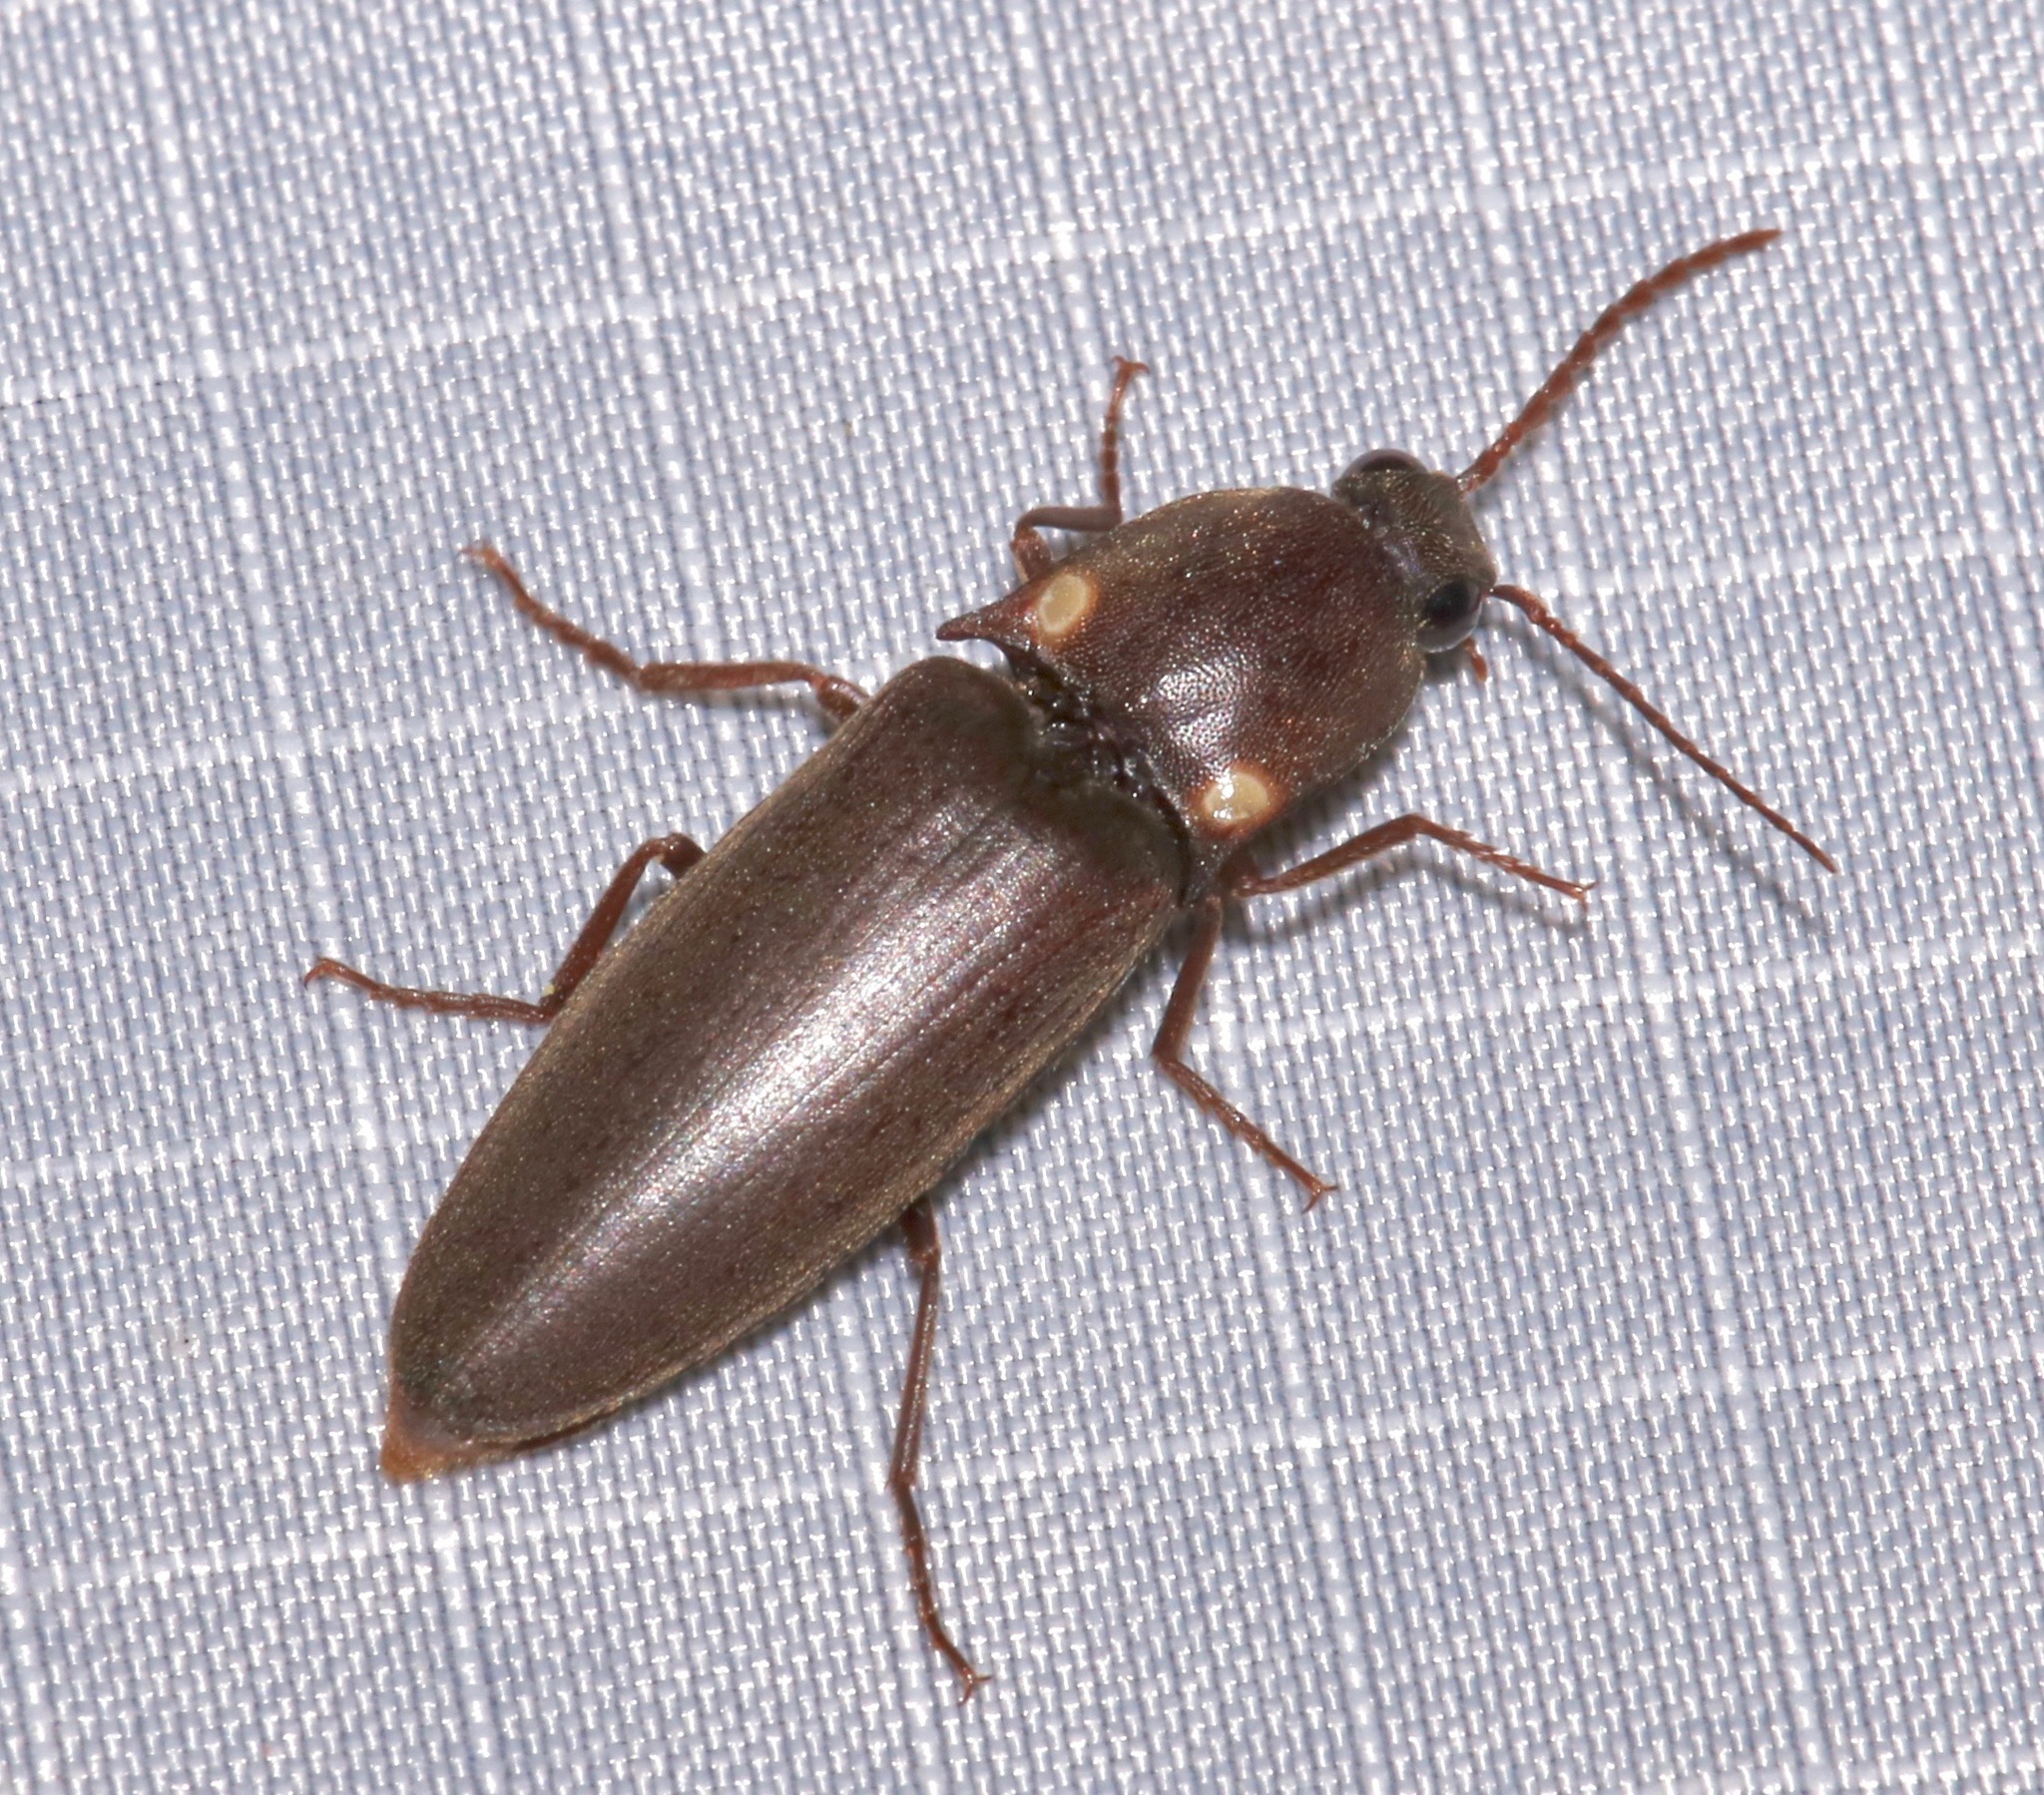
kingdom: Animalia
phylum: Arthropoda
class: Insecta
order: Coleoptera
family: Elateridae
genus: Vesperelater
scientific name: Vesperelater
